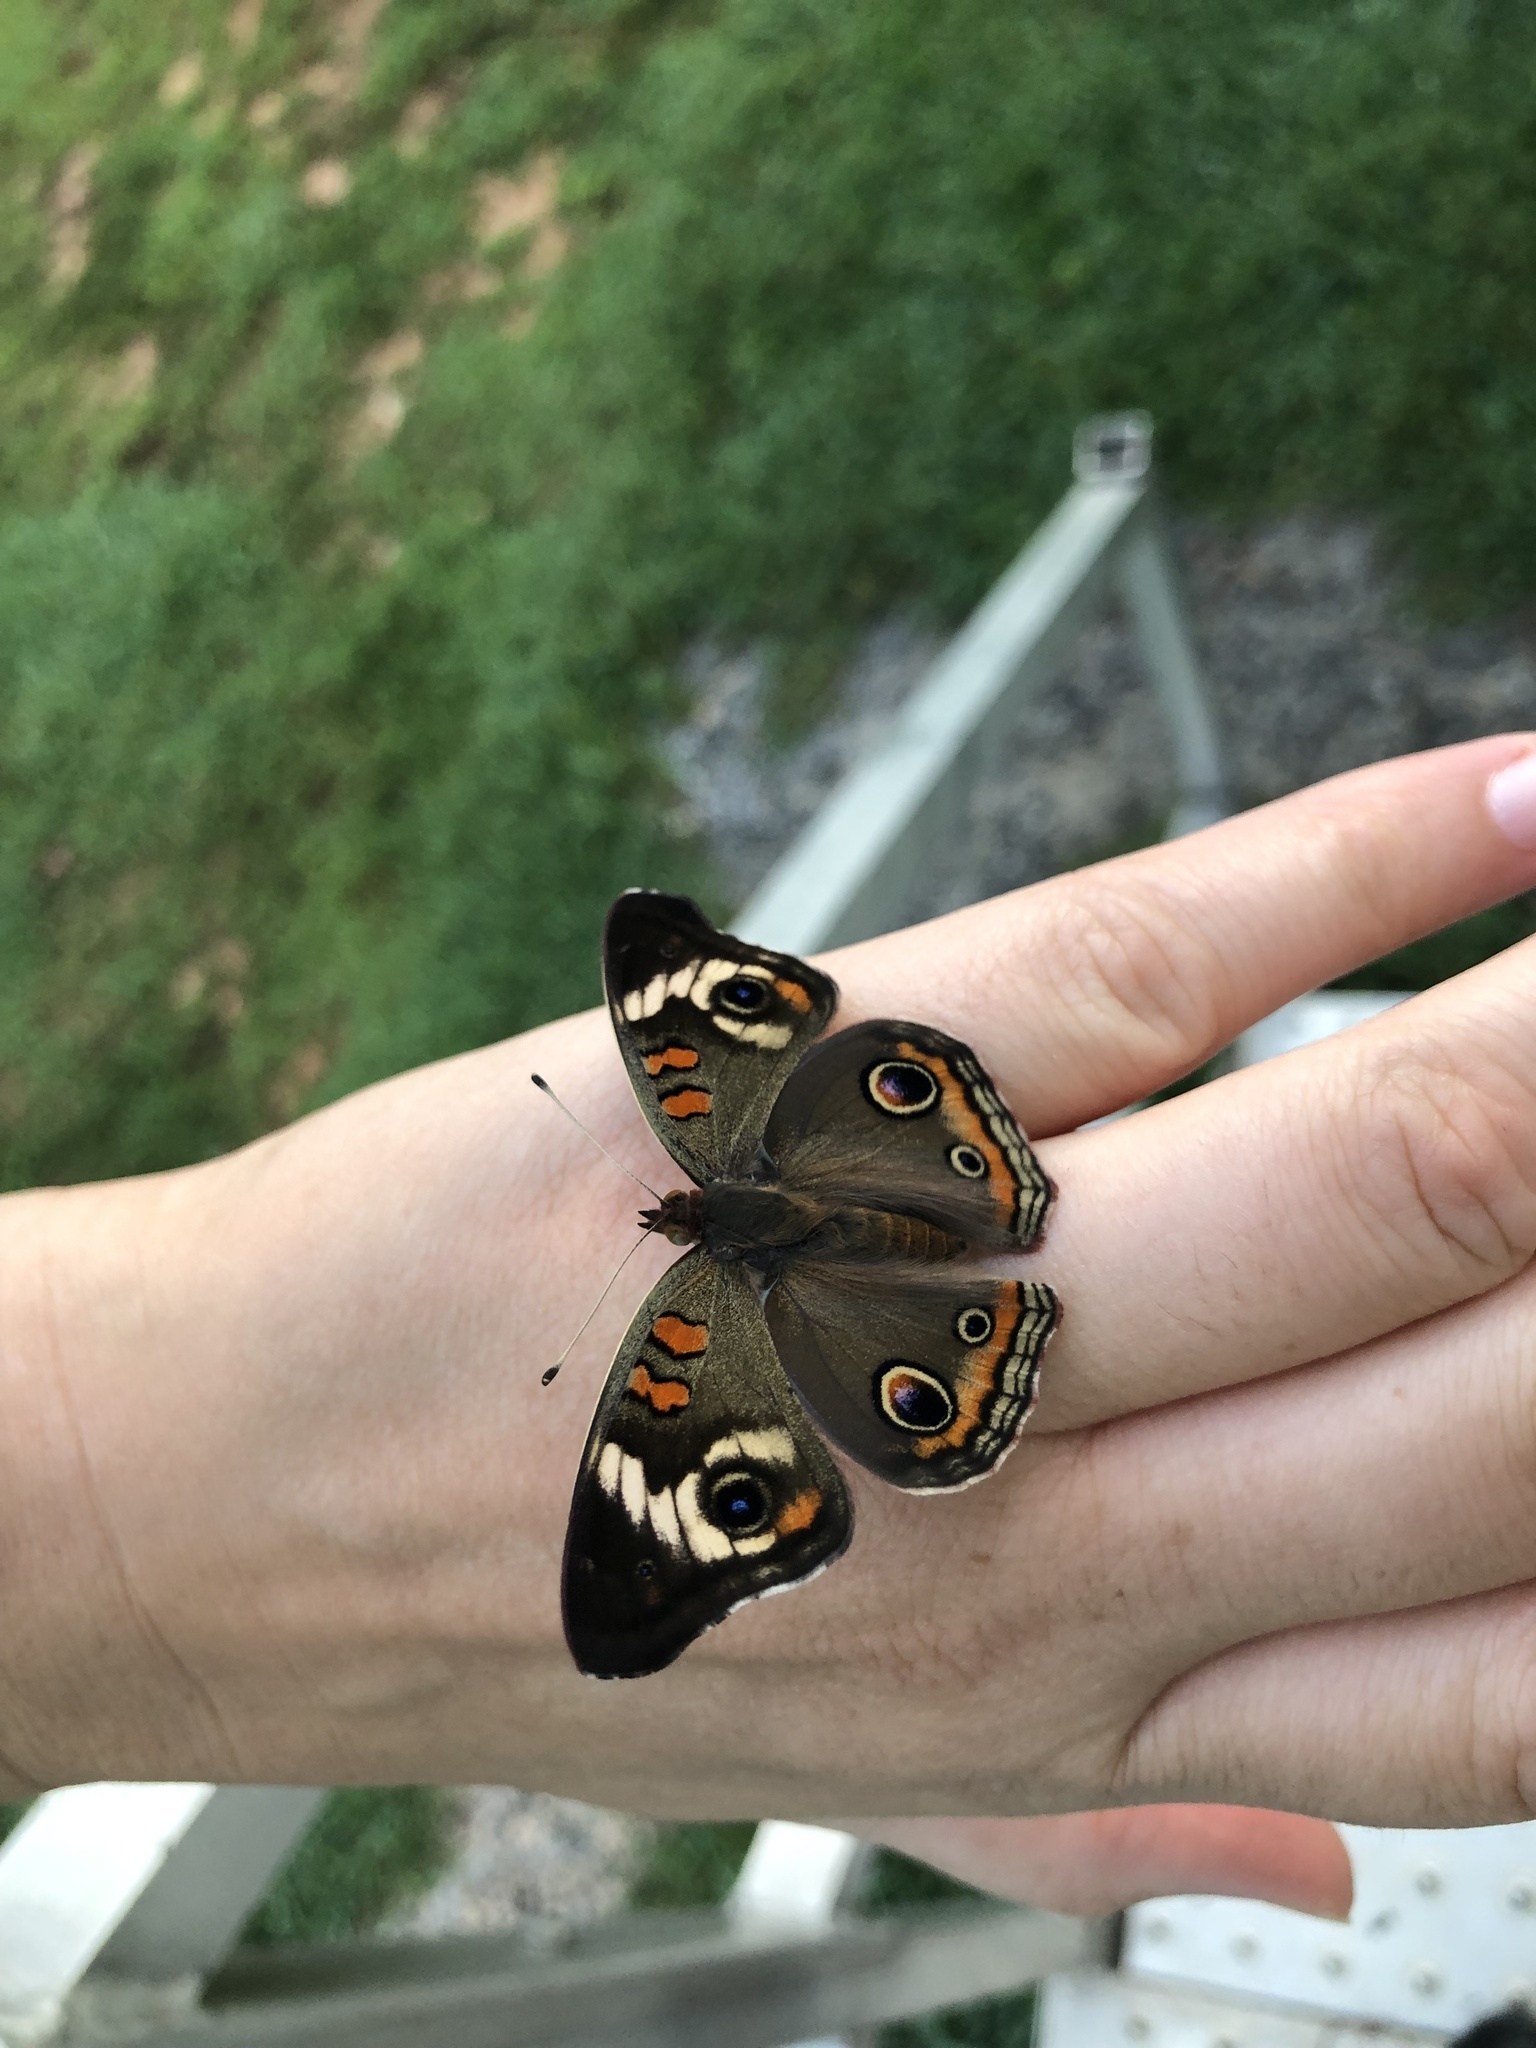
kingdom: Animalia
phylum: Arthropoda
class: Insecta
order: Lepidoptera
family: Nymphalidae
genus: Junonia
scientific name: Junonia coenia
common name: Common buckeye
